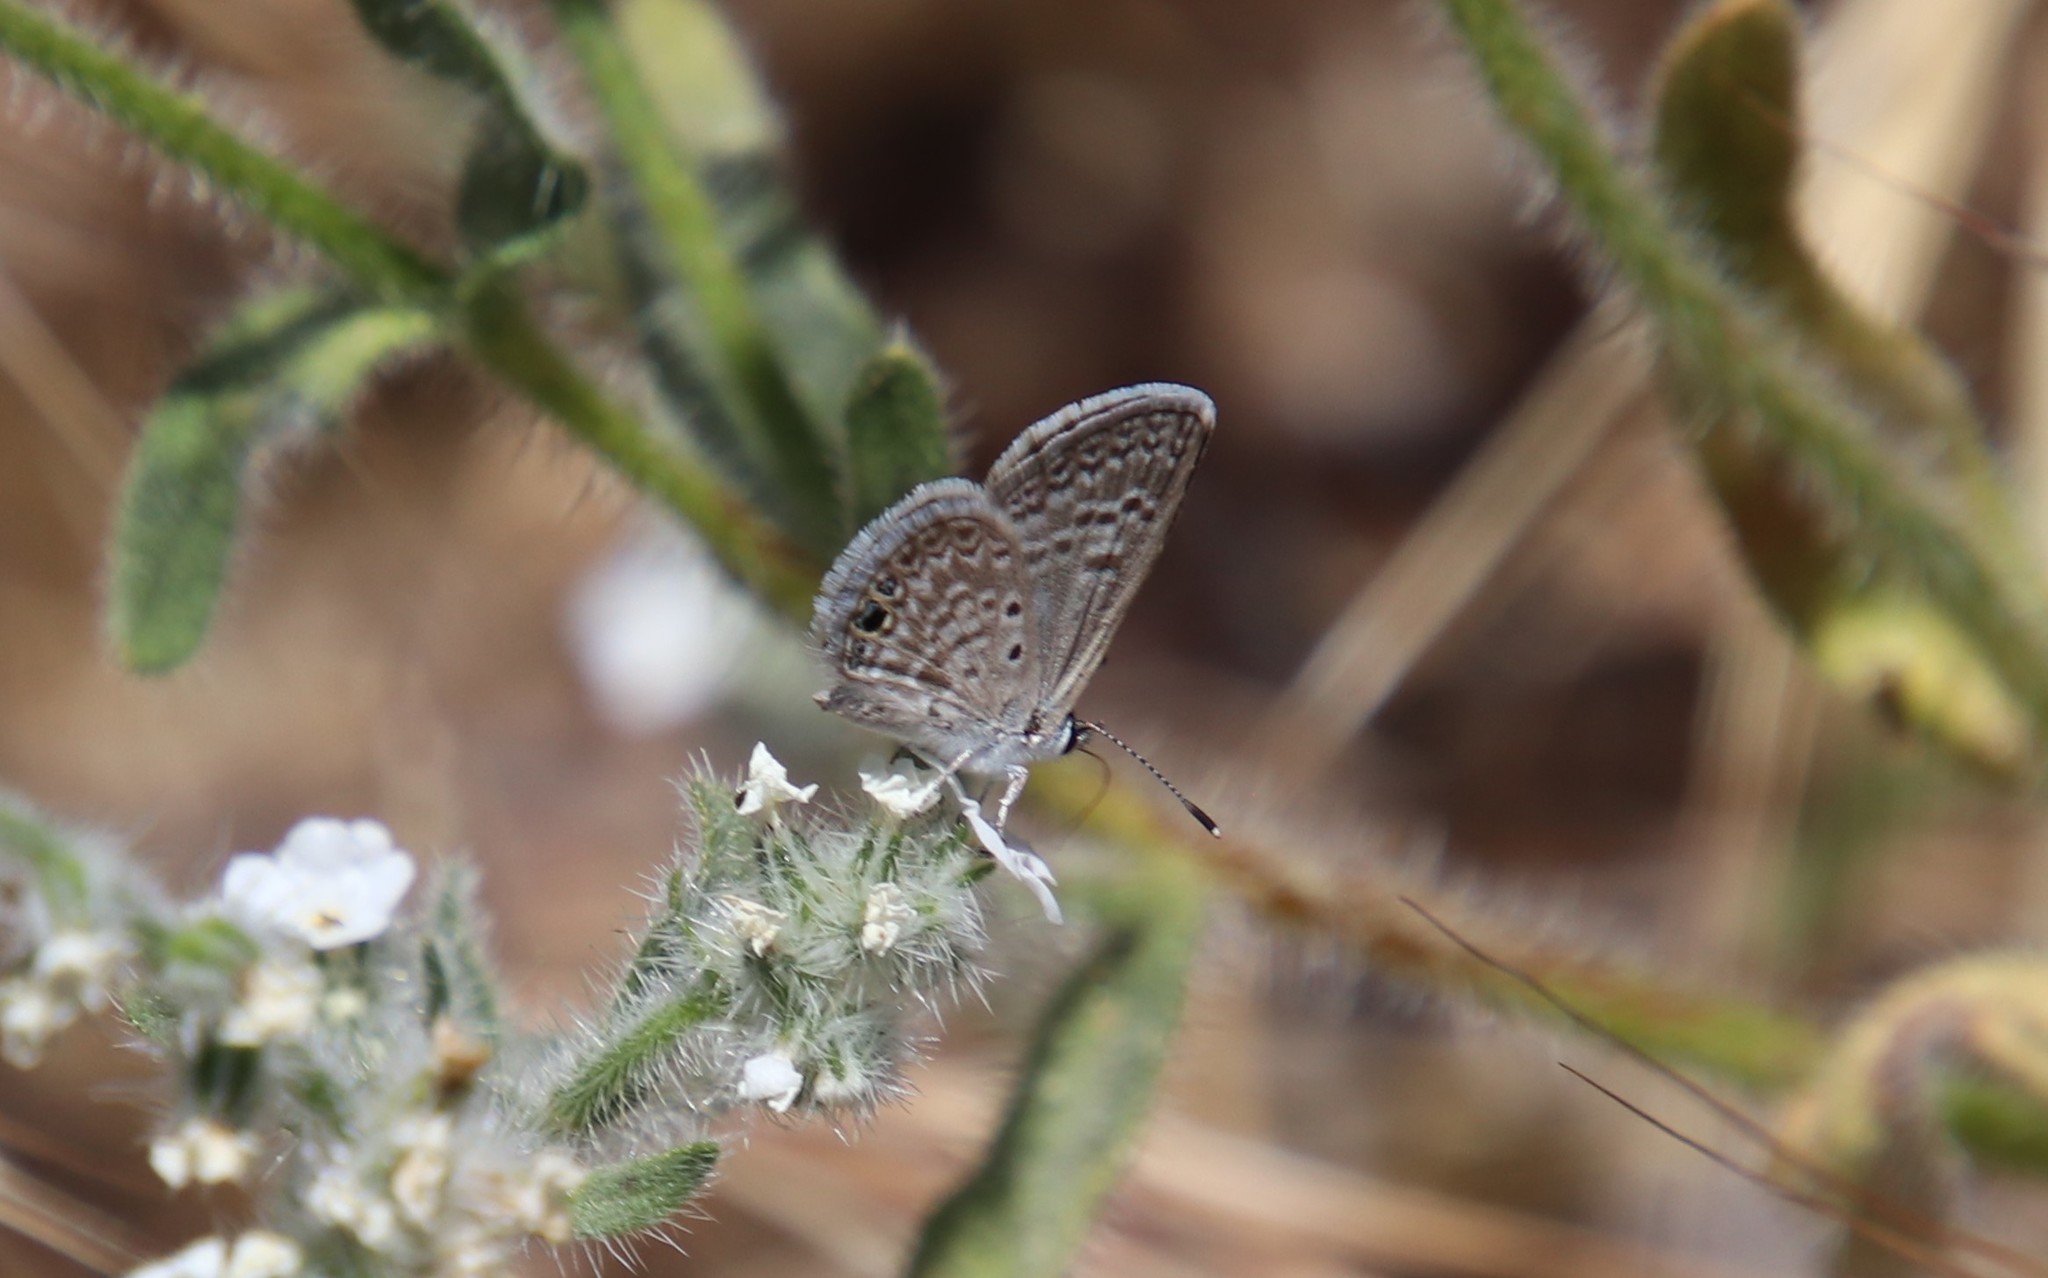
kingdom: Animalia
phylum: Arthropoda
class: Insecta
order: Lepidoptera
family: Lycaenidae
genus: Hemiargus
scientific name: Hemiargus ceraunus
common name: Ceraunus blue
